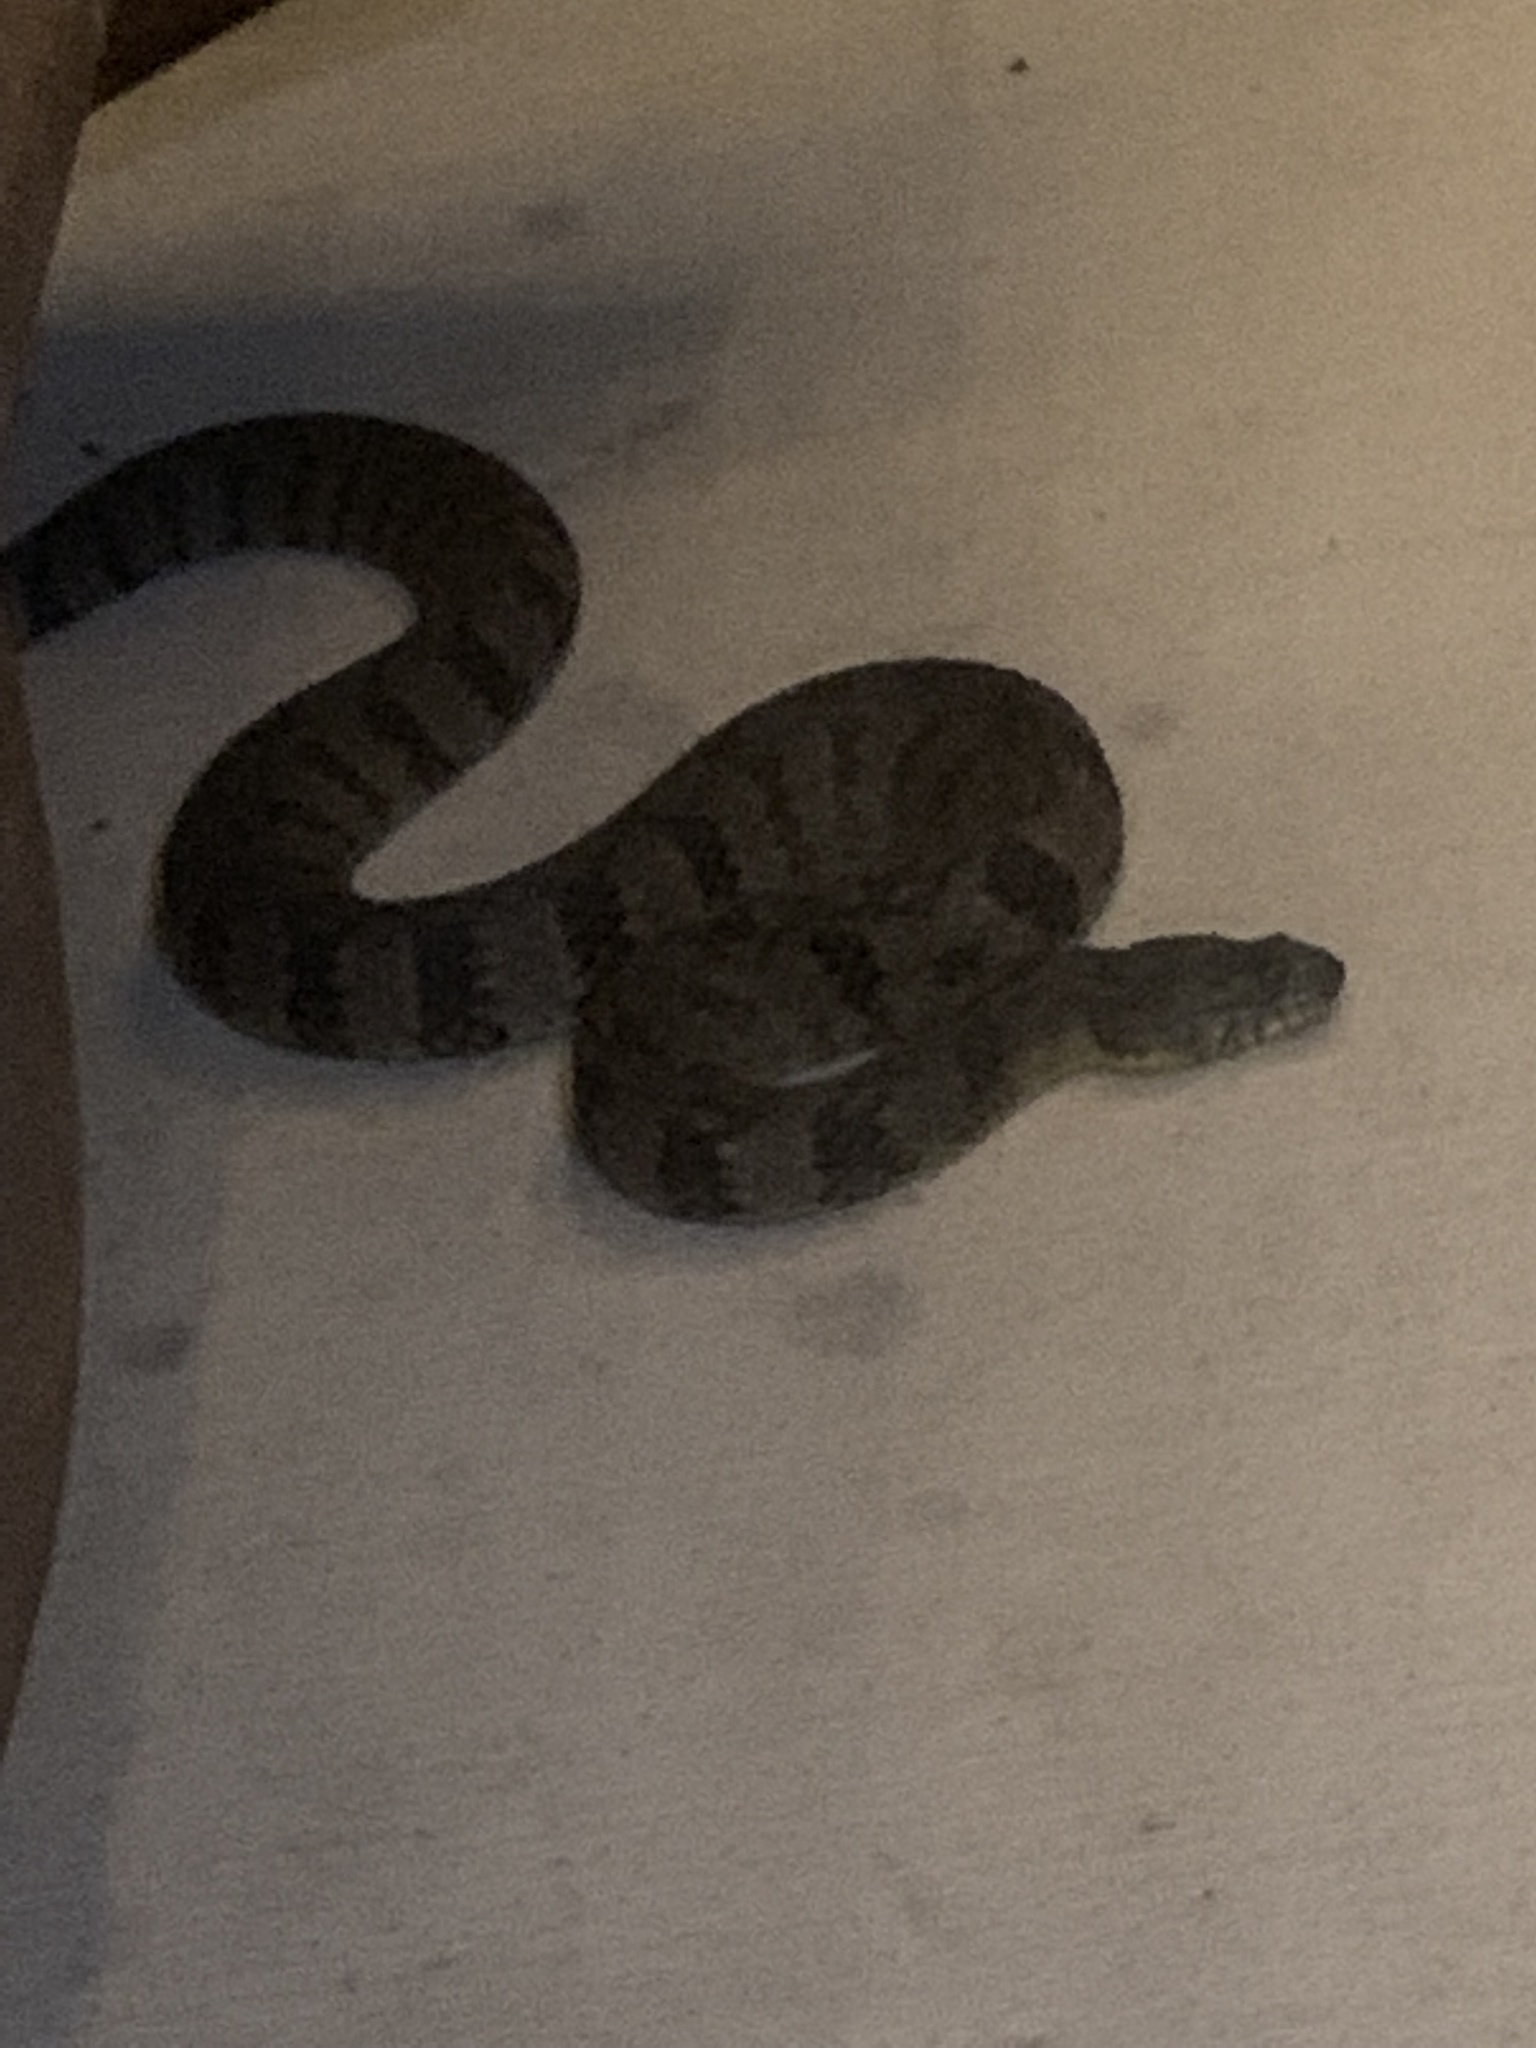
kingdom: Animalia
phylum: Chordata
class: Squamata
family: Colubridae
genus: Nerodia
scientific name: Nerodia rhombifer
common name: Diamondback water snake
